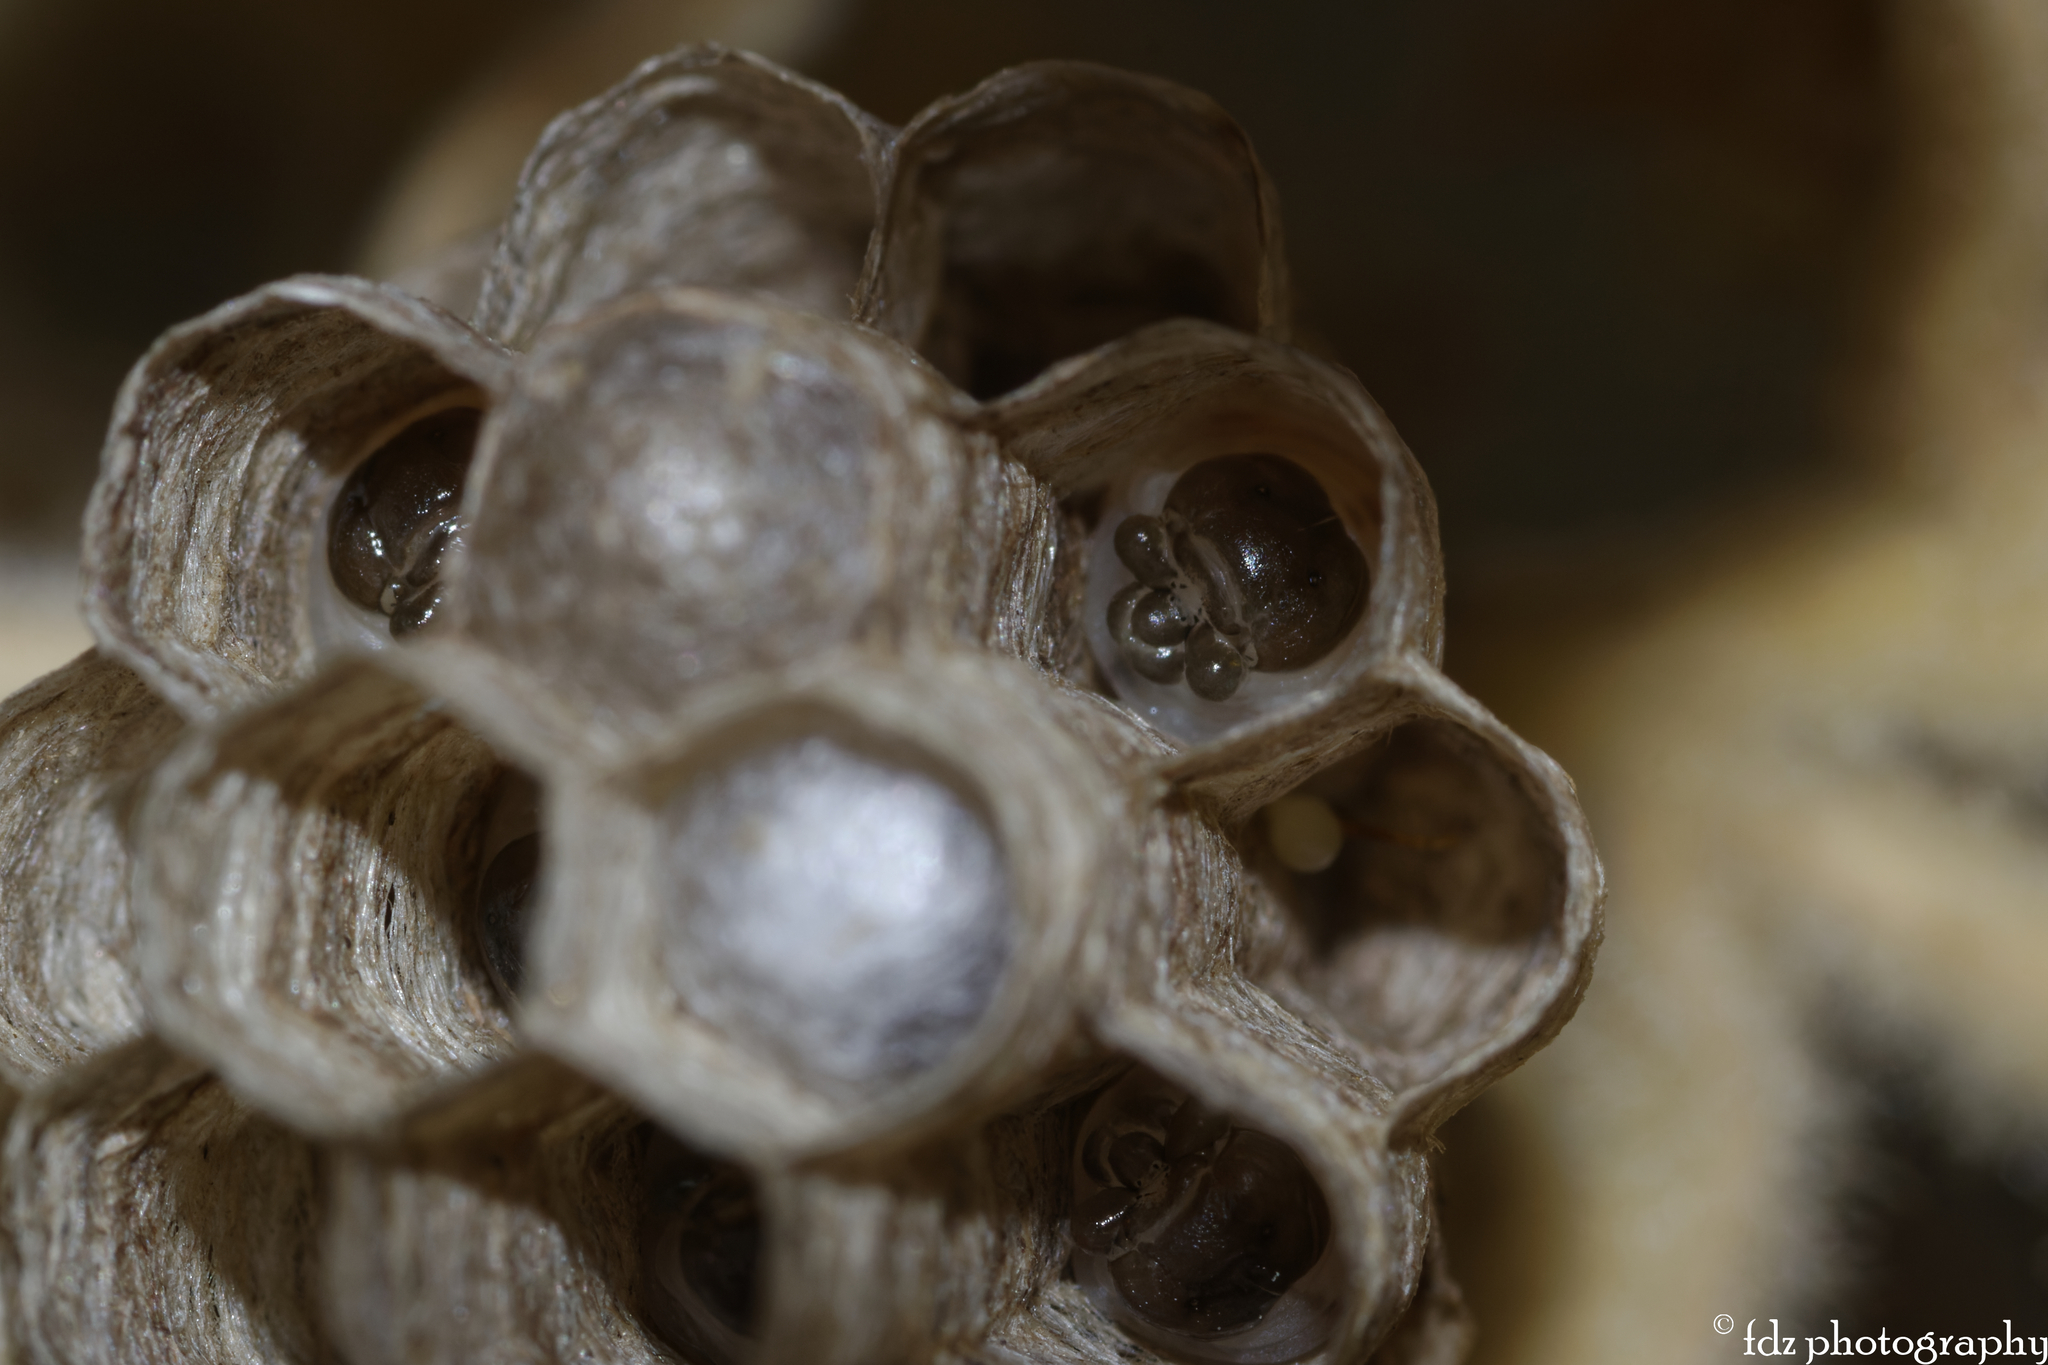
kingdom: Animalia
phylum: Arthropoda
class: Insecta
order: Hymenoptera
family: Eumenidae
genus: Polistes
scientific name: Polistes gallicus
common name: Paper wasp
